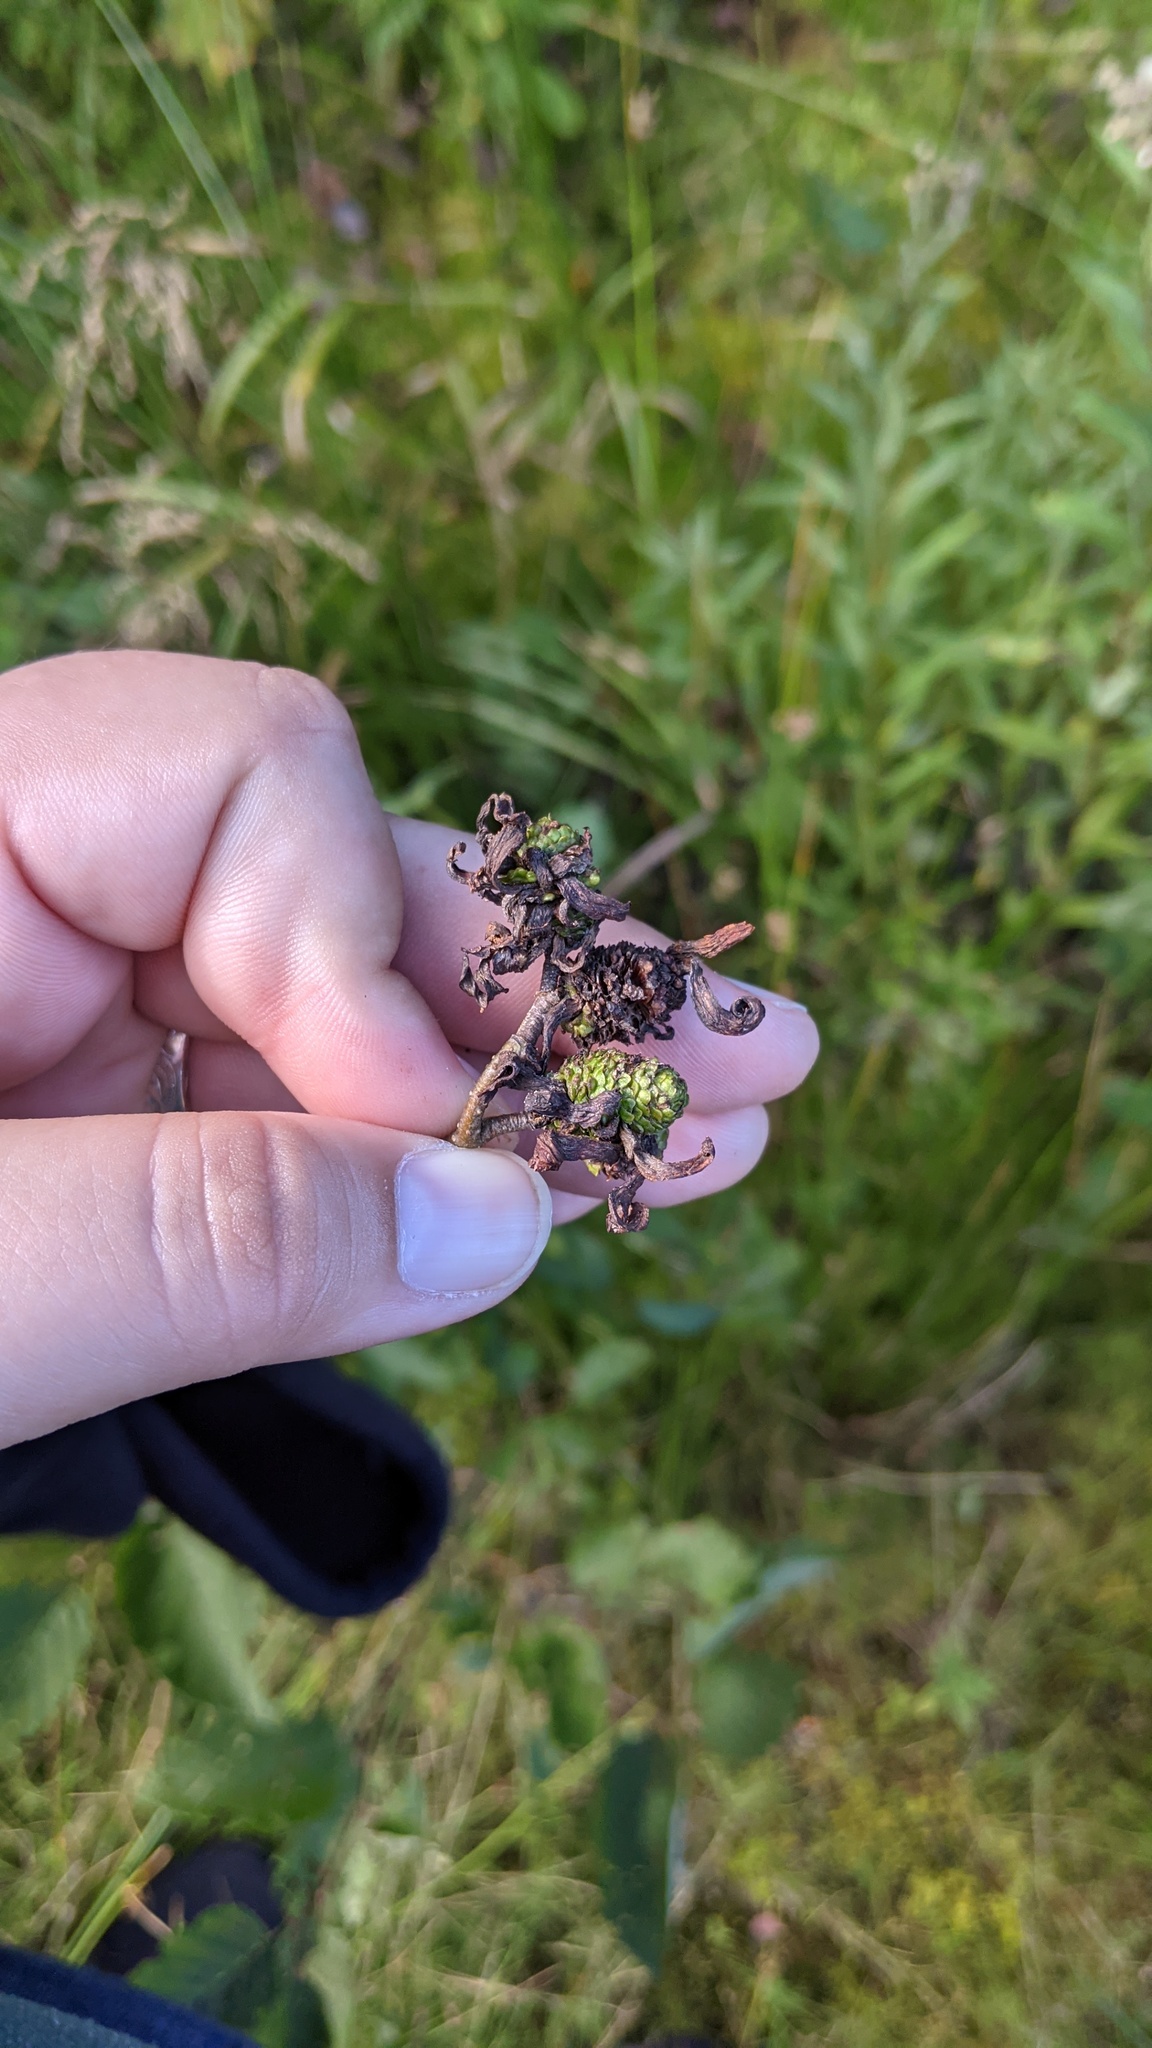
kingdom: Fungi
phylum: Ascomycota
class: Taphrinomycetes
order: Taphrinales
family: Taphrinaceae
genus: Taphrina
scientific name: Taphrina robinsoniana
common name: Eastern american alder tongue gall fungus
